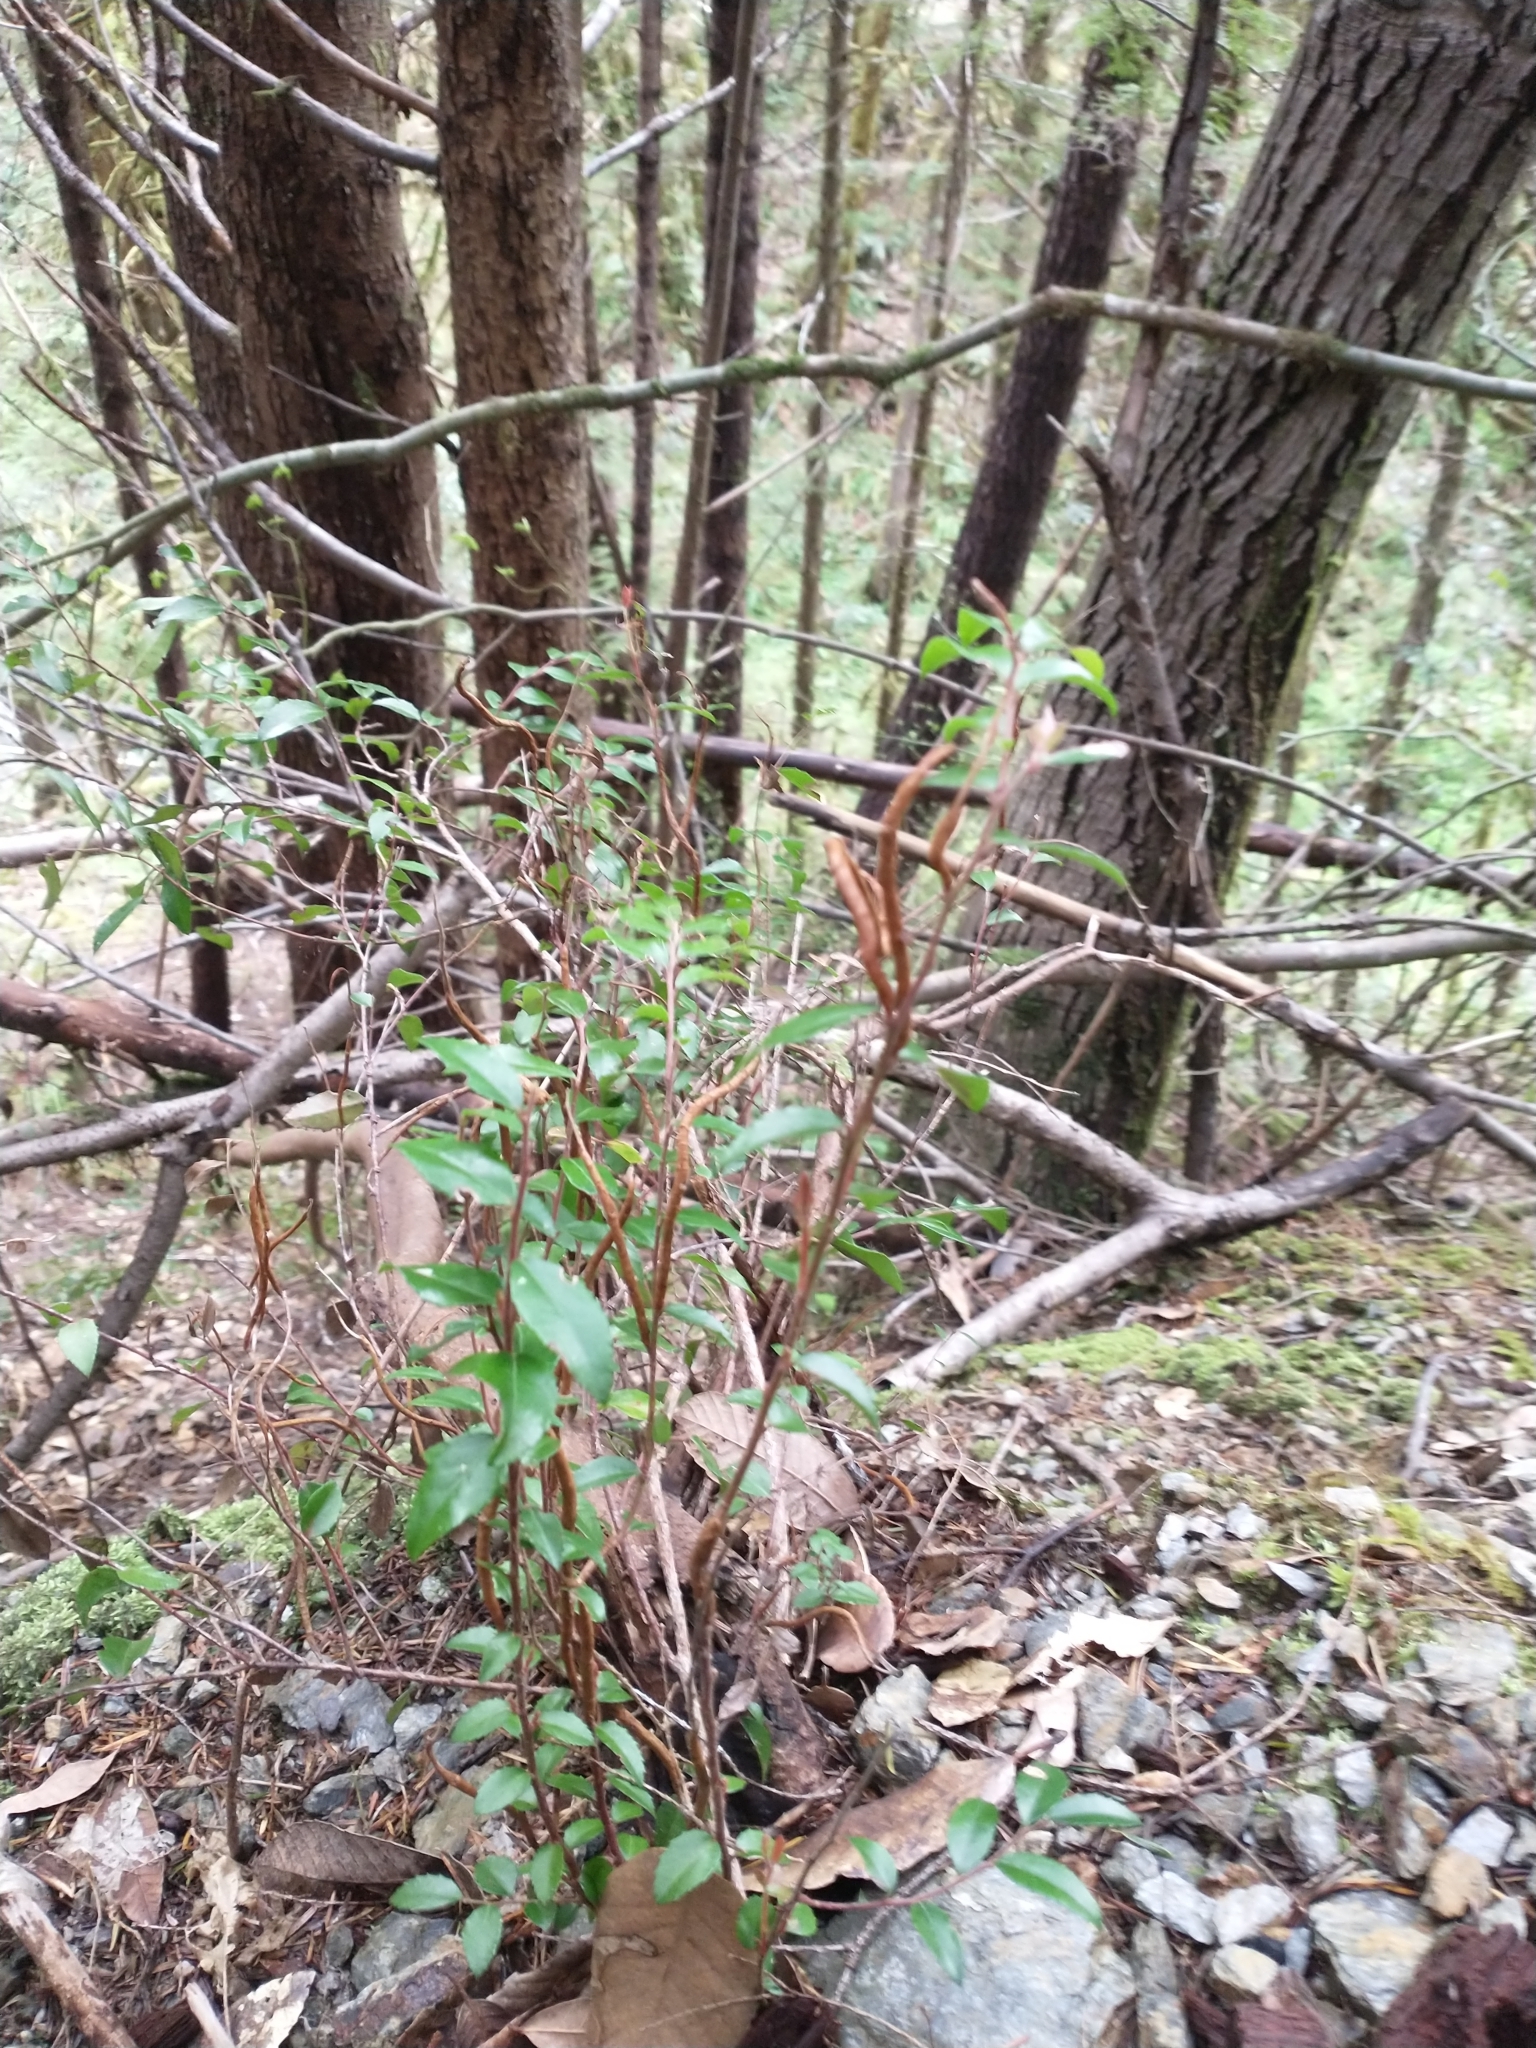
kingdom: Fungi
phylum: Basidiomycota
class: Pucciniomycetes
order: Pucciniales
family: Pucciniastraceae
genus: Calyptospora
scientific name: Calyptospora
